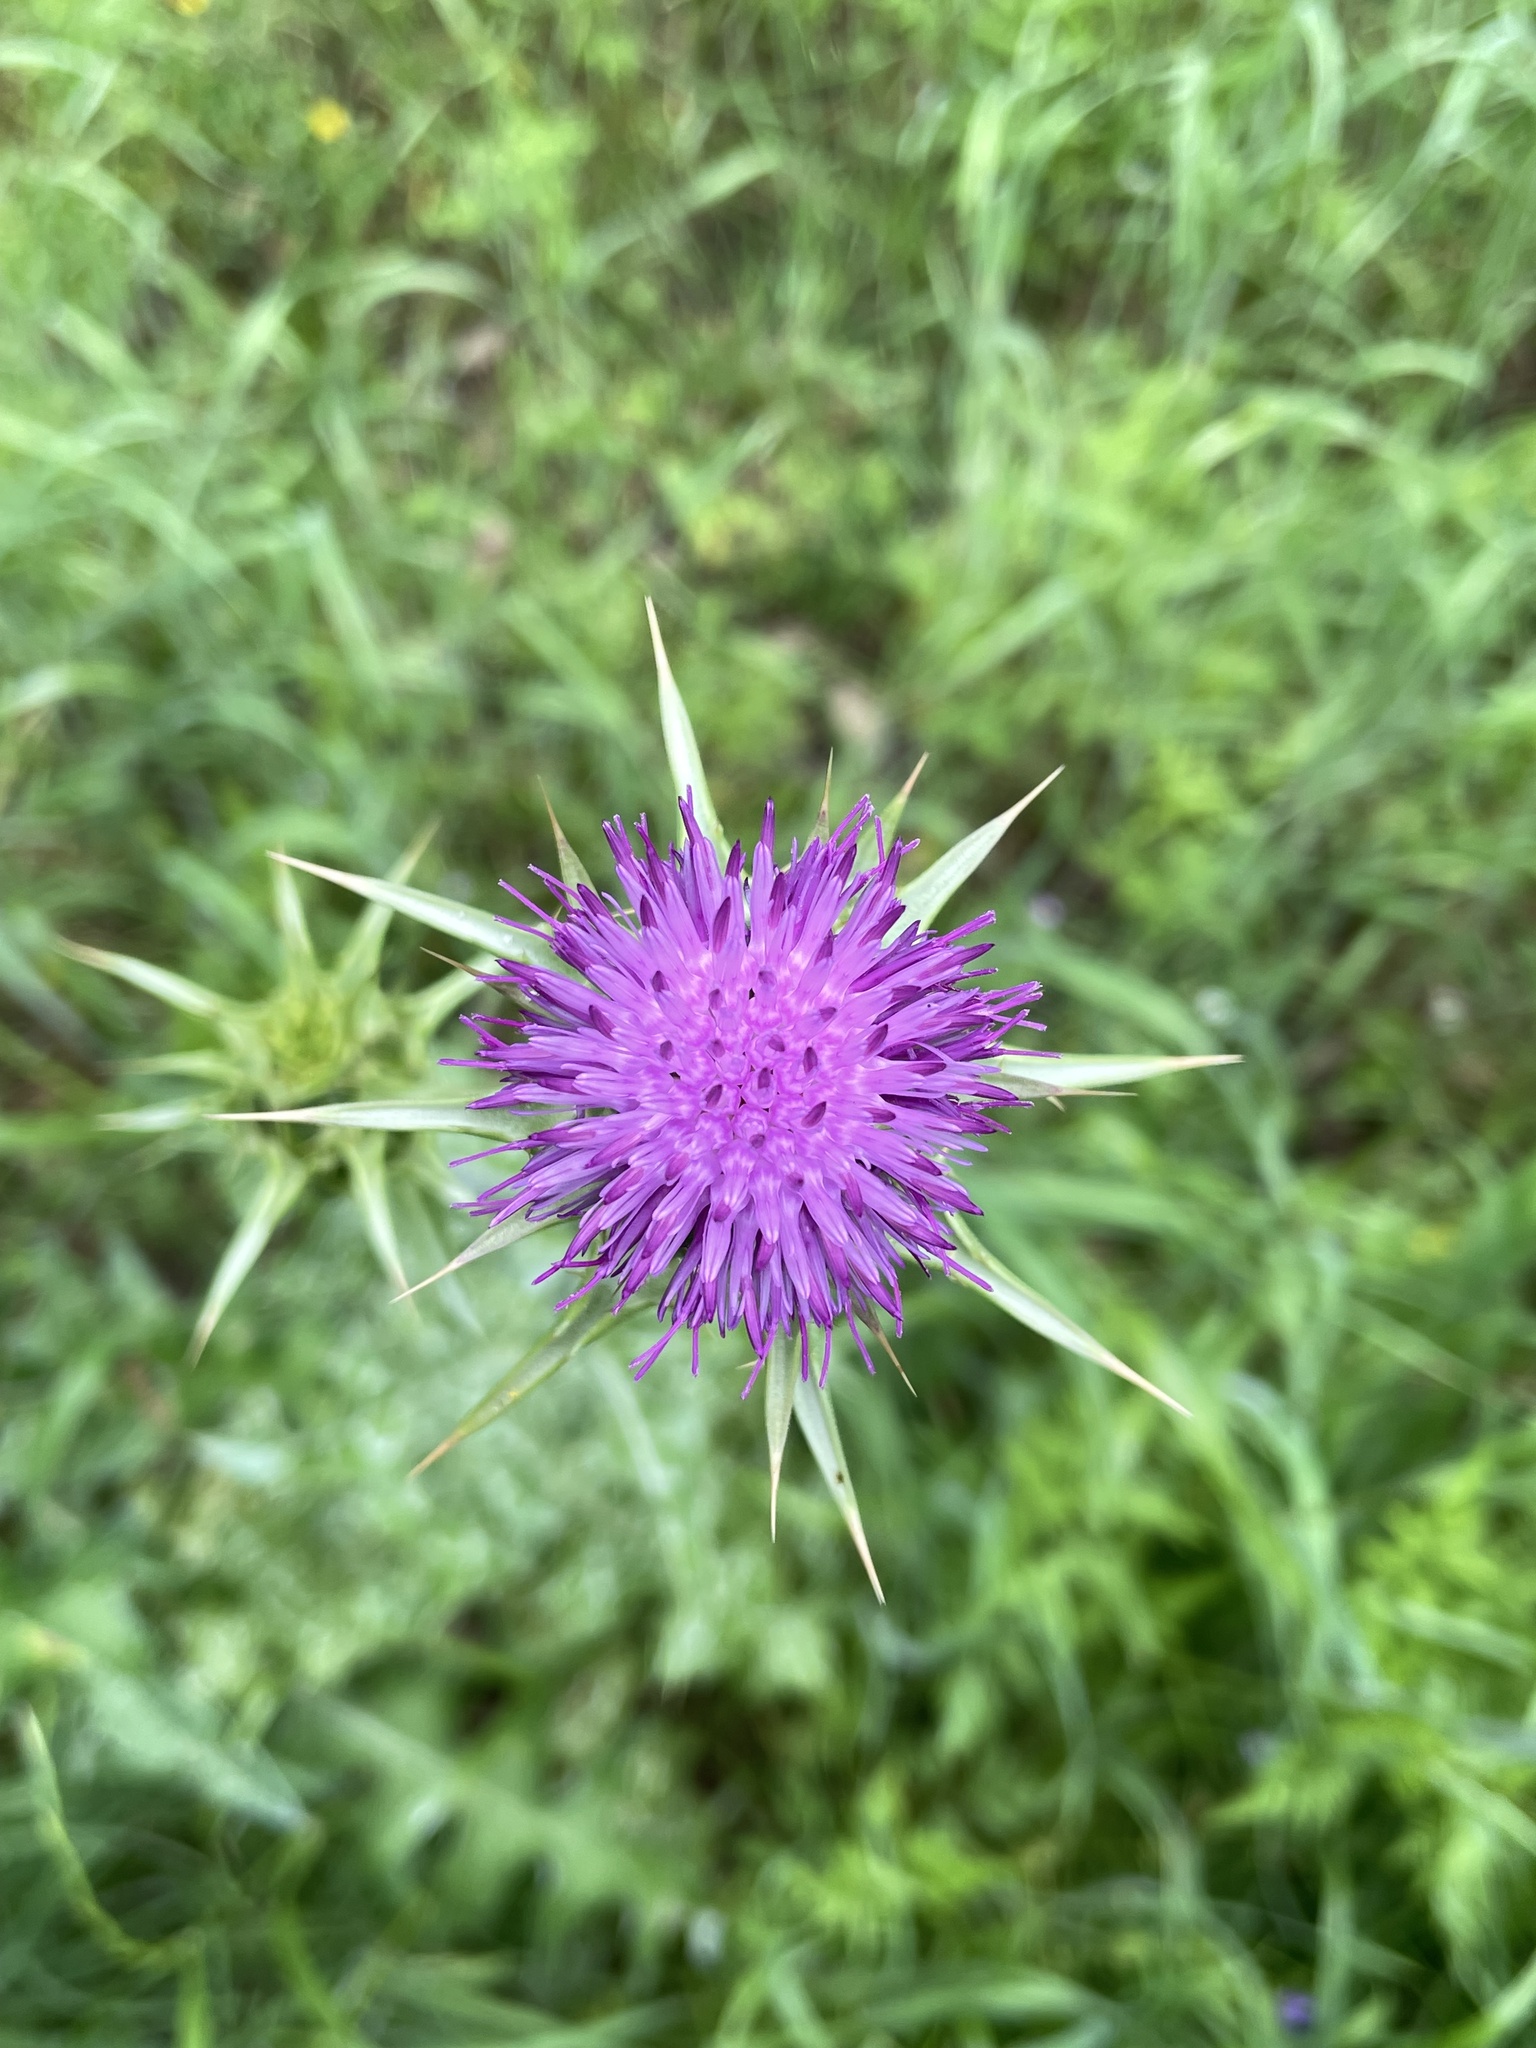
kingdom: Plantae
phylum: Tracheophyta
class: Magnoliopsida
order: Asterales
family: Asteraceae
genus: Silybum
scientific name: Silybum marianum
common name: Milk thistle
